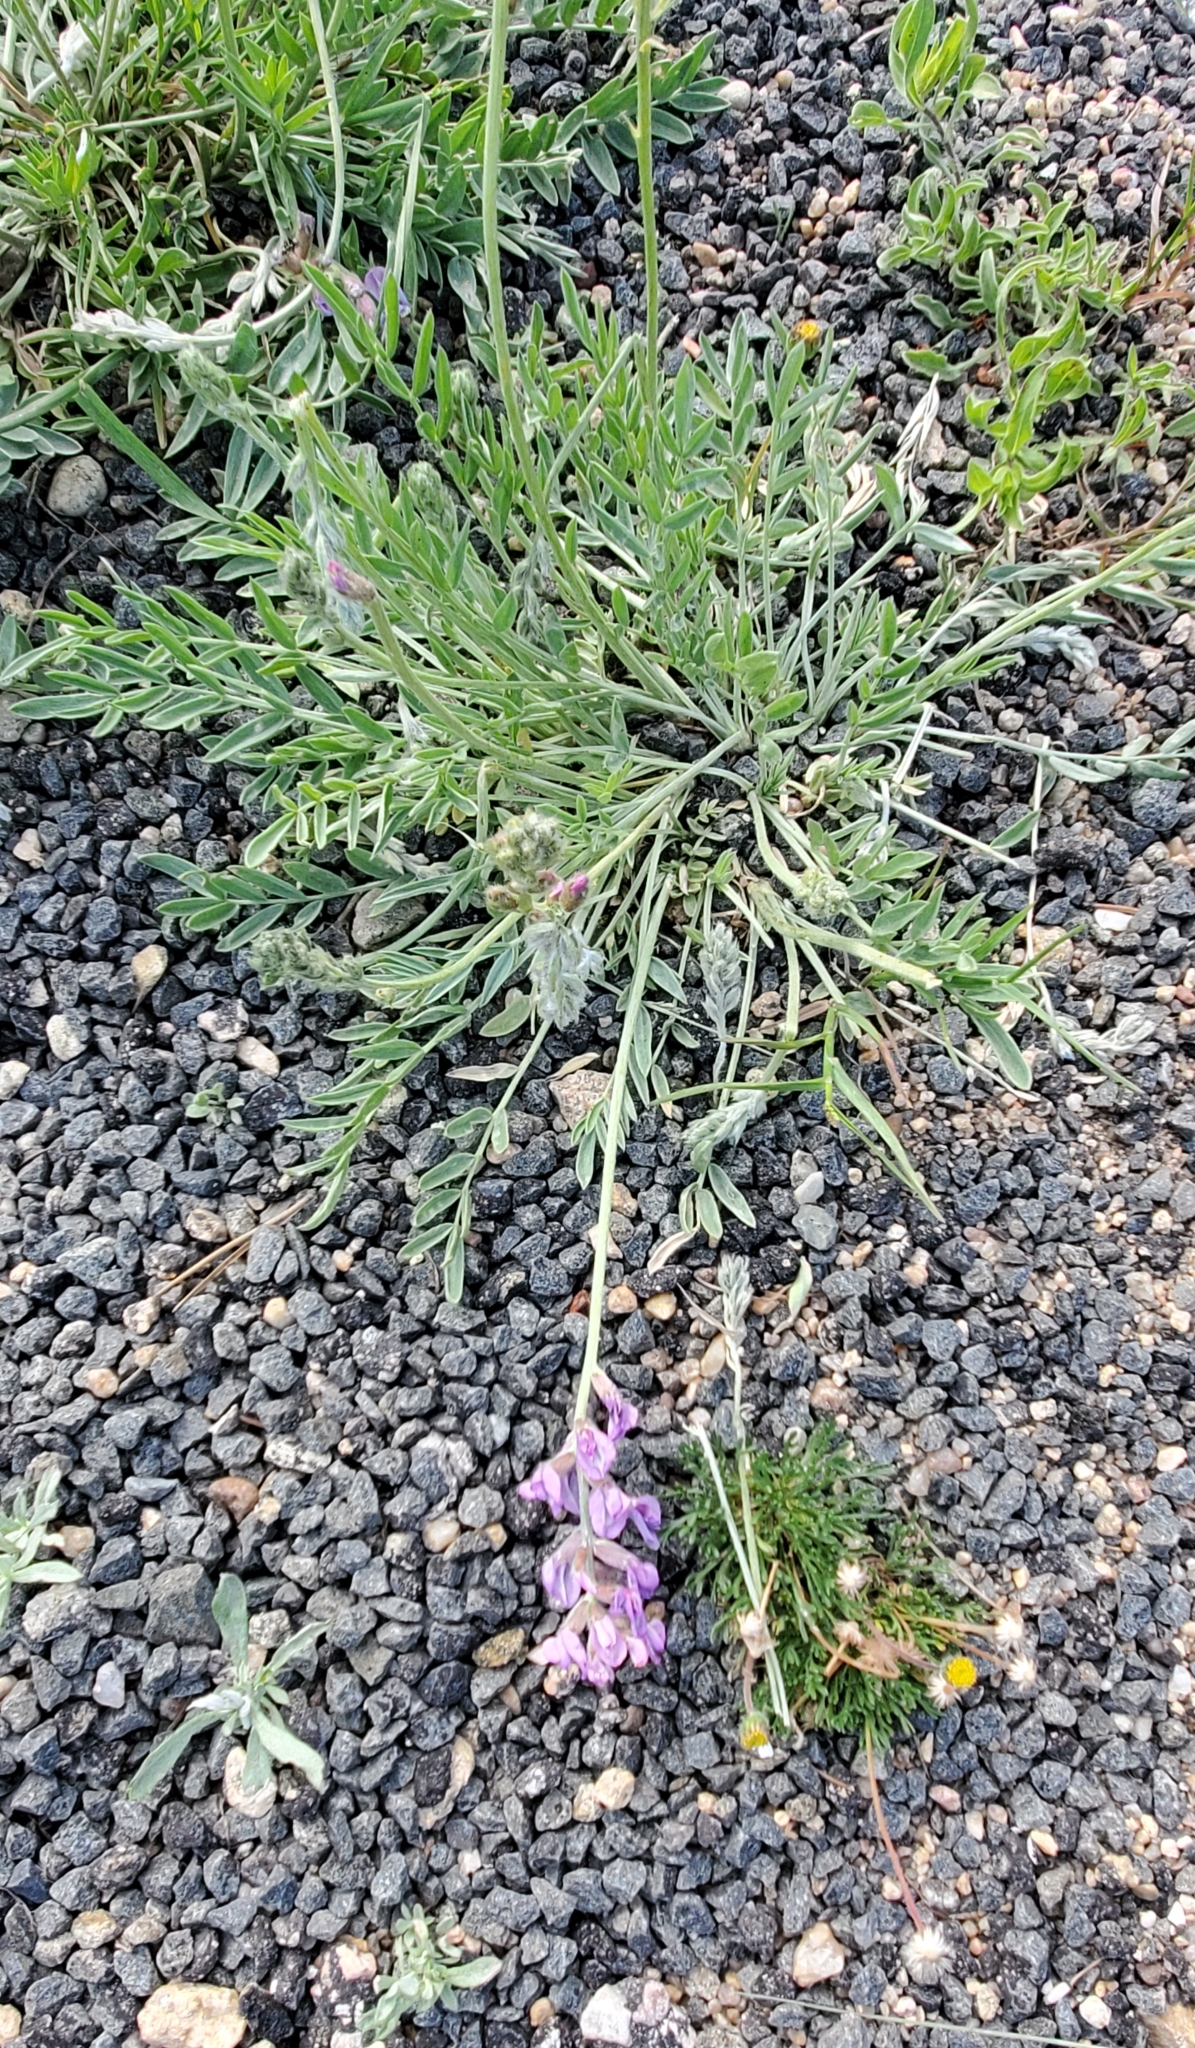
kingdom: Plantae
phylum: Tracheophyta
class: Magnoliopsida
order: Fabales
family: Fabaceae
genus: Oxytropis
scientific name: Oxytropis lambertii
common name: Purple locoweed
